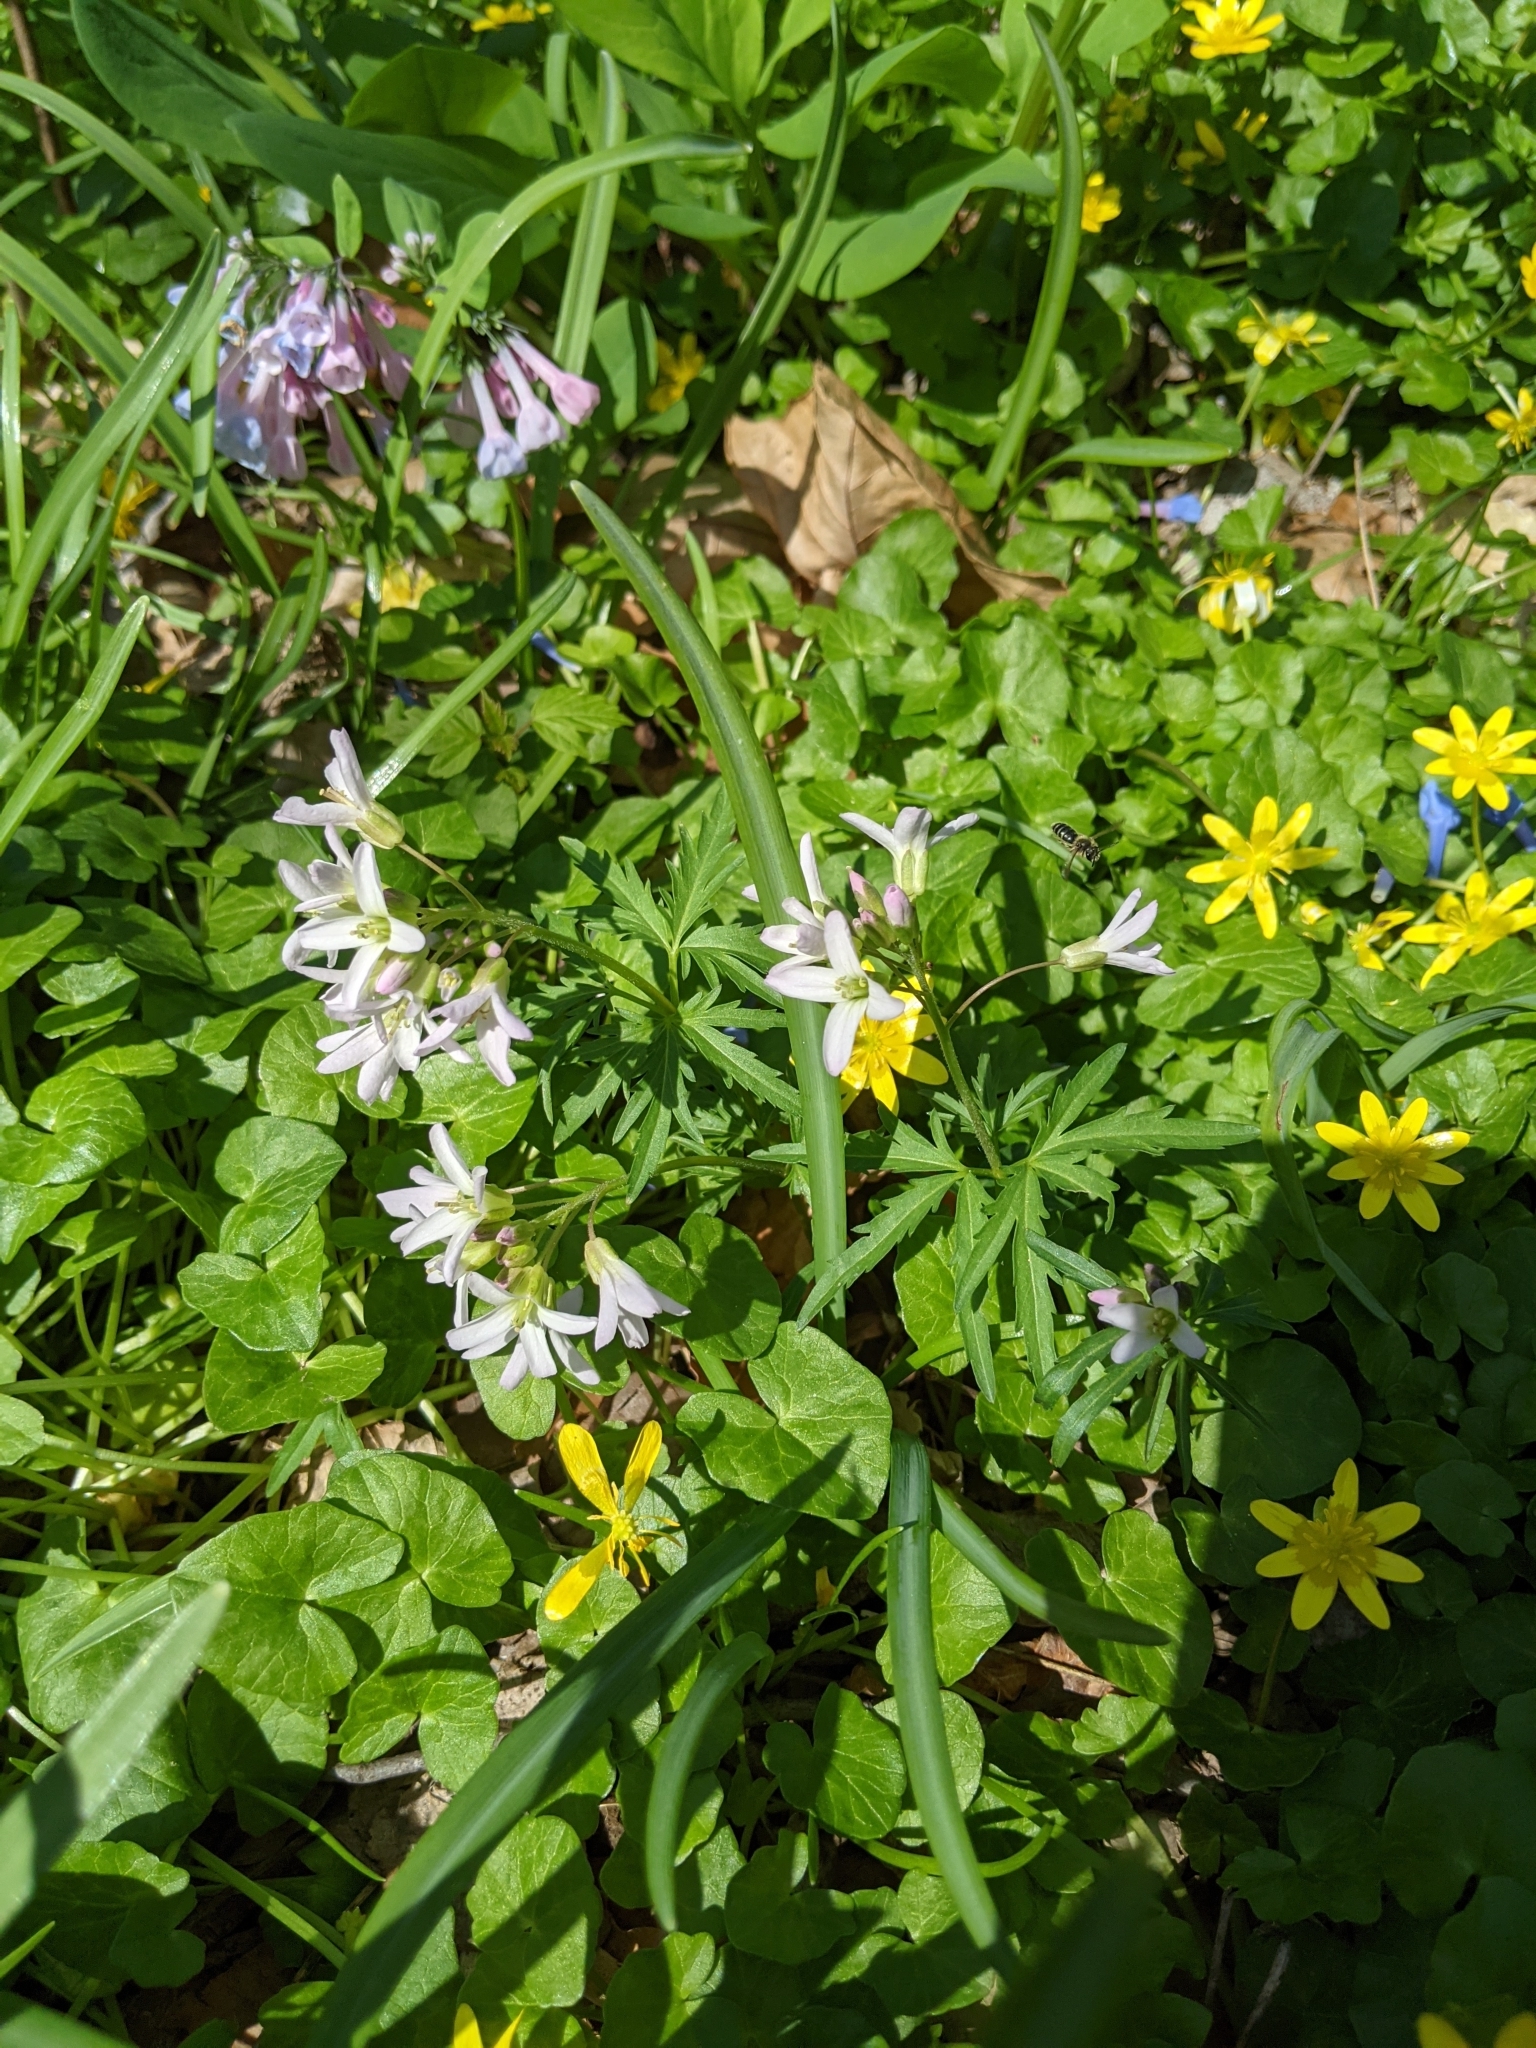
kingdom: Plantae
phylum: Tracheophyta
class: Magnoliopsida
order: Brassicales
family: Brassicaceae
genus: Cardamine
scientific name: Cardamine concatenata
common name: Cut-leaf toothcup
